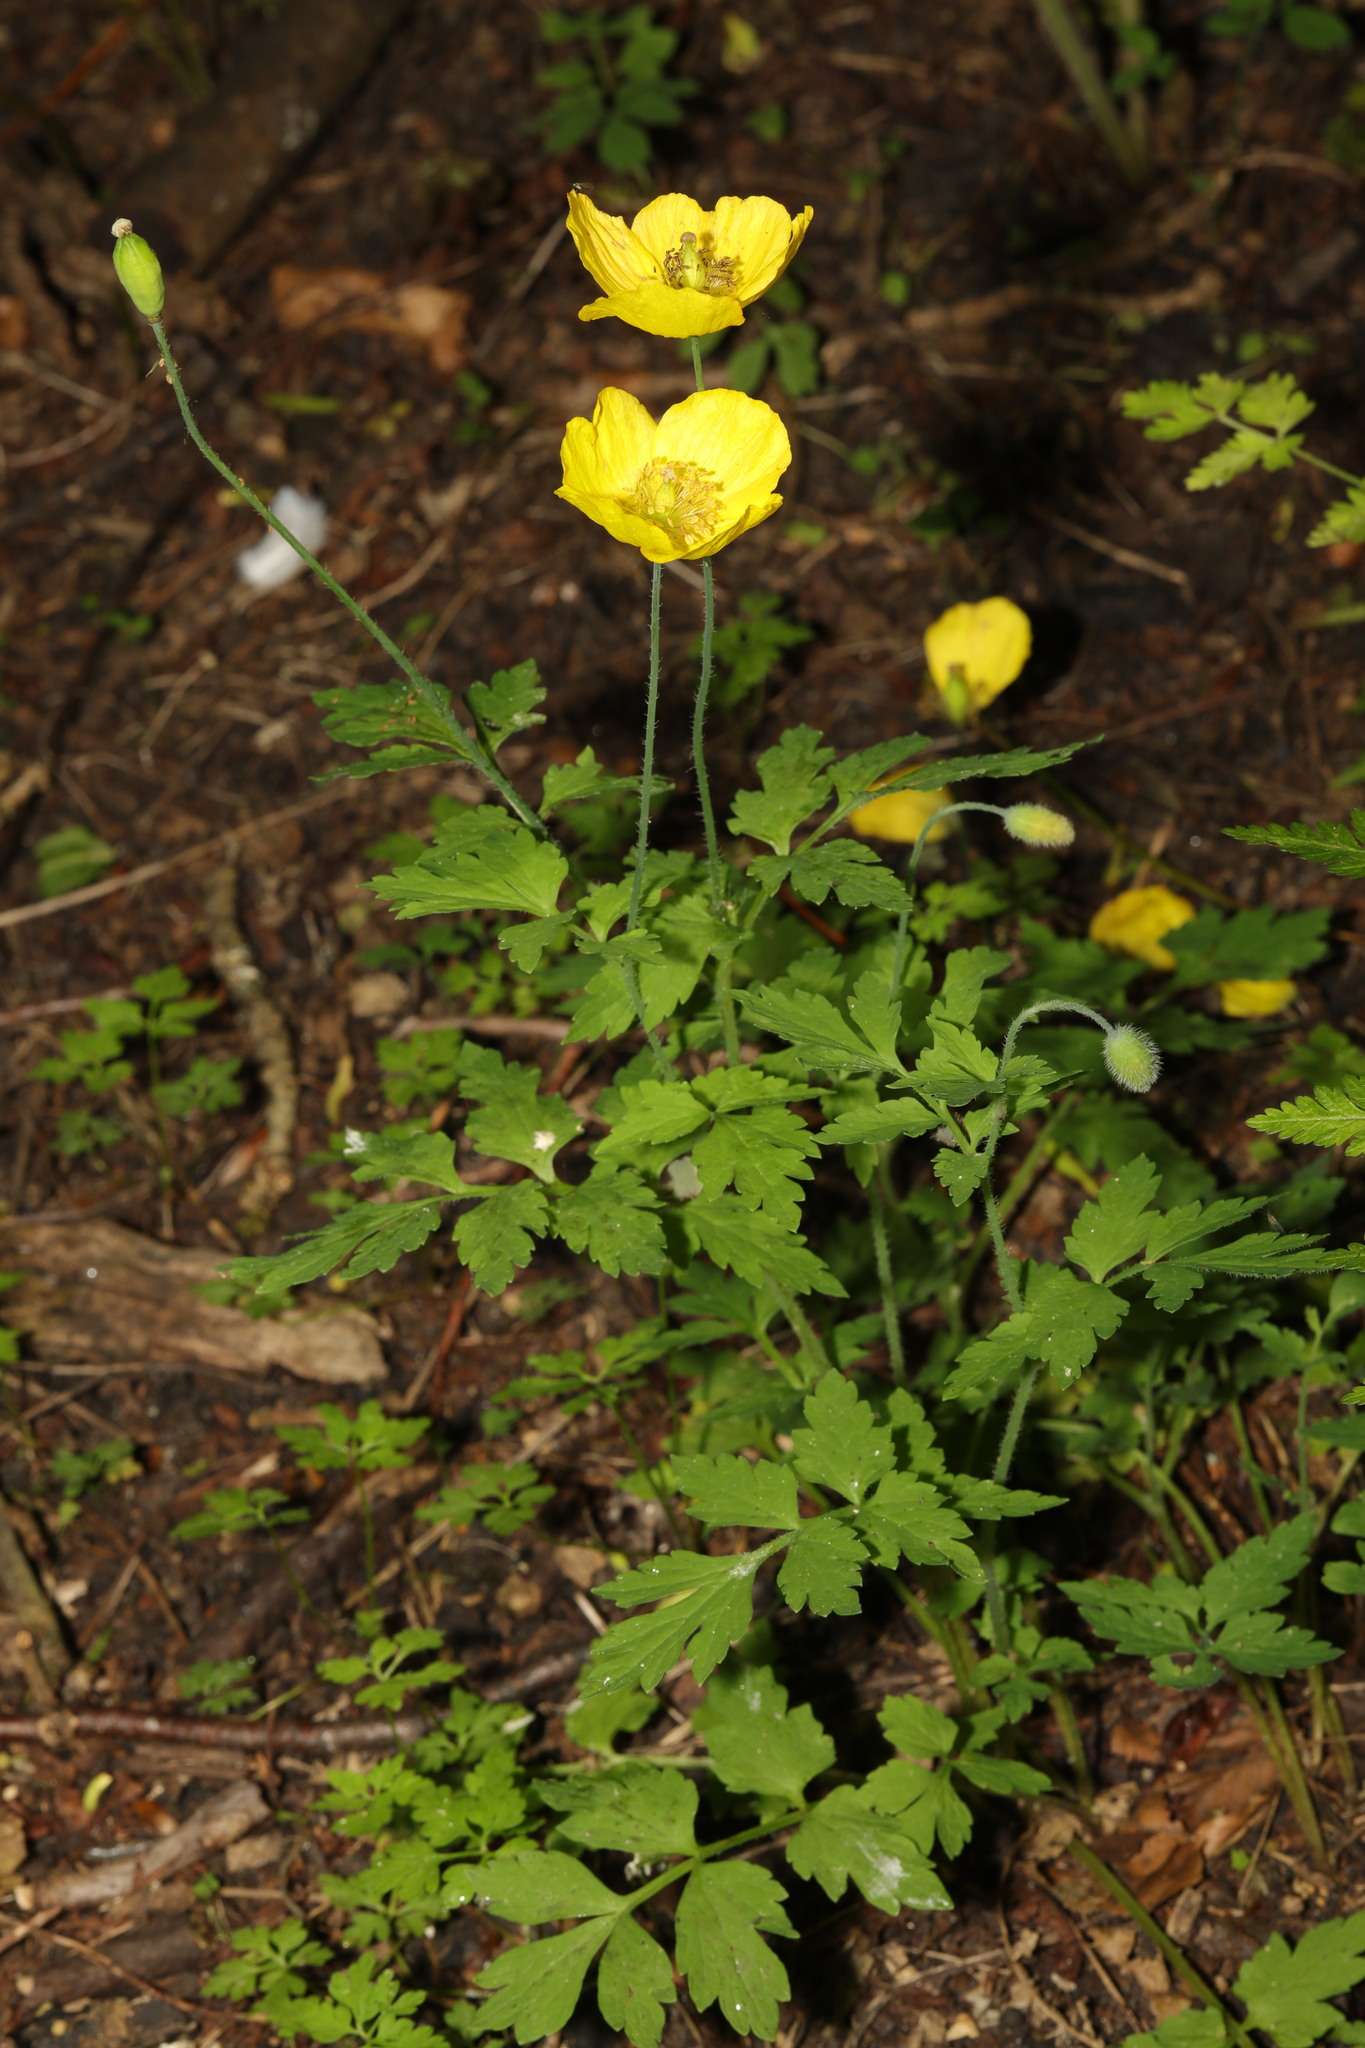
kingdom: Plantae
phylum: Tracheophyta
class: Magnoliopsida
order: Ranunculales
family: Papaveraceae
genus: Papaver
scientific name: Papaver cambricum
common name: Poppy
